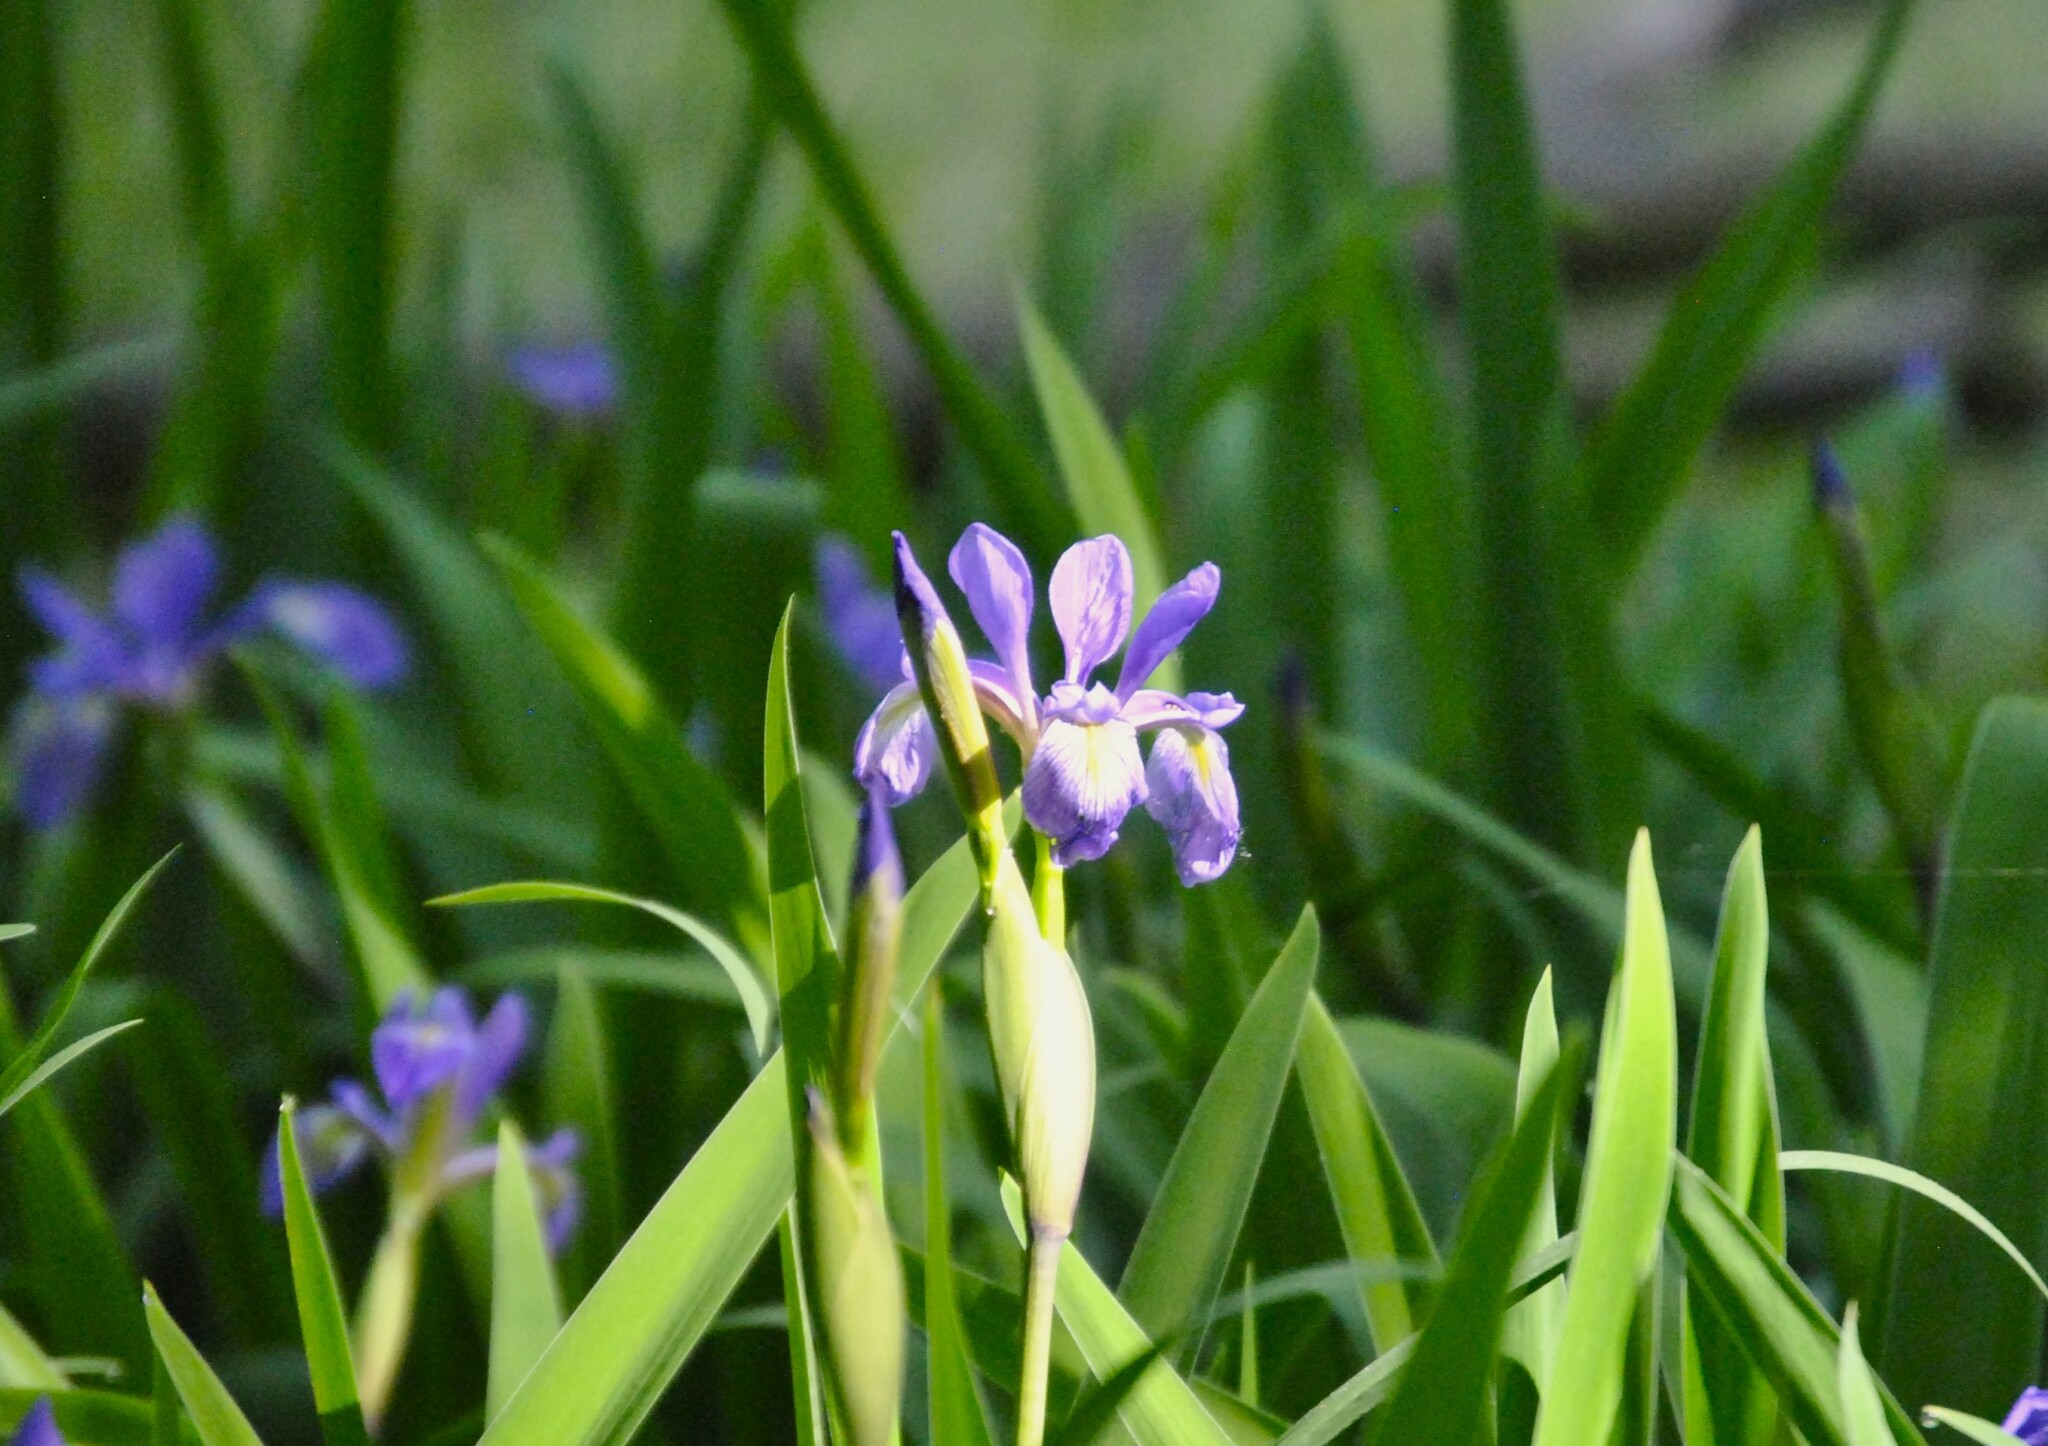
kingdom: Plantae
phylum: Tracheophyta
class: Liliopsida
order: Asparagales
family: Iridaceae
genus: Iris
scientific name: Iris virginica
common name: Southern blue flag
